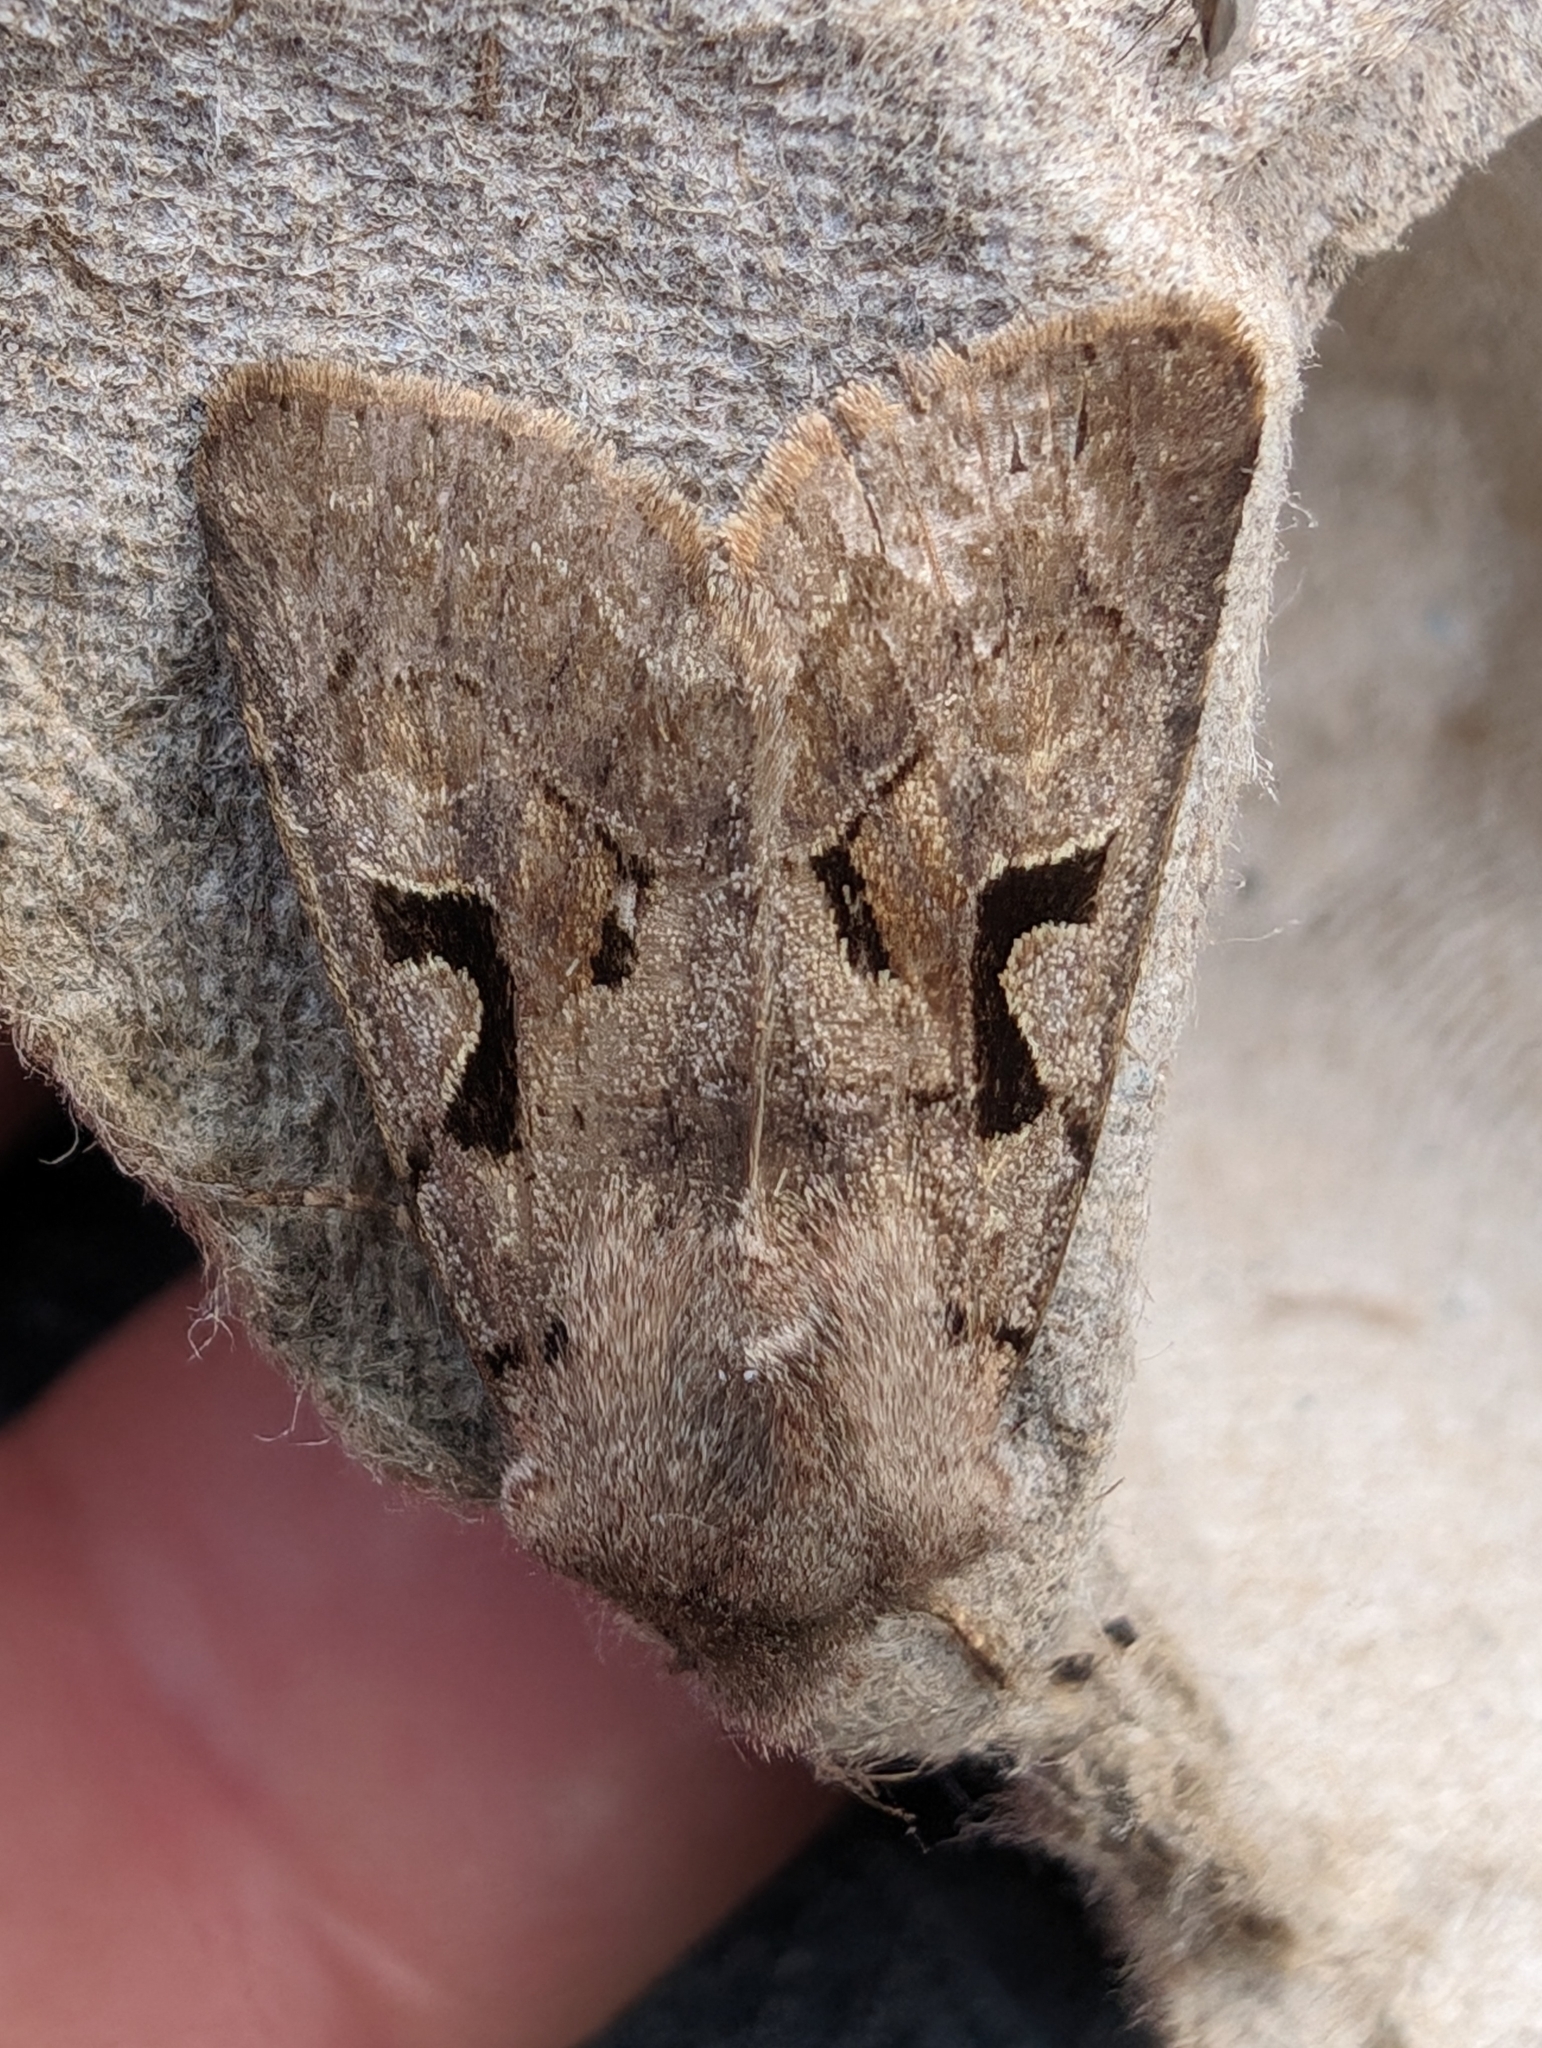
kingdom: Animalia
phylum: Arthropoda
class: Insecta
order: Lepidoptera
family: Noctuidae
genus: Orthosia
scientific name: Orthosia gothica
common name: Hebrew character
